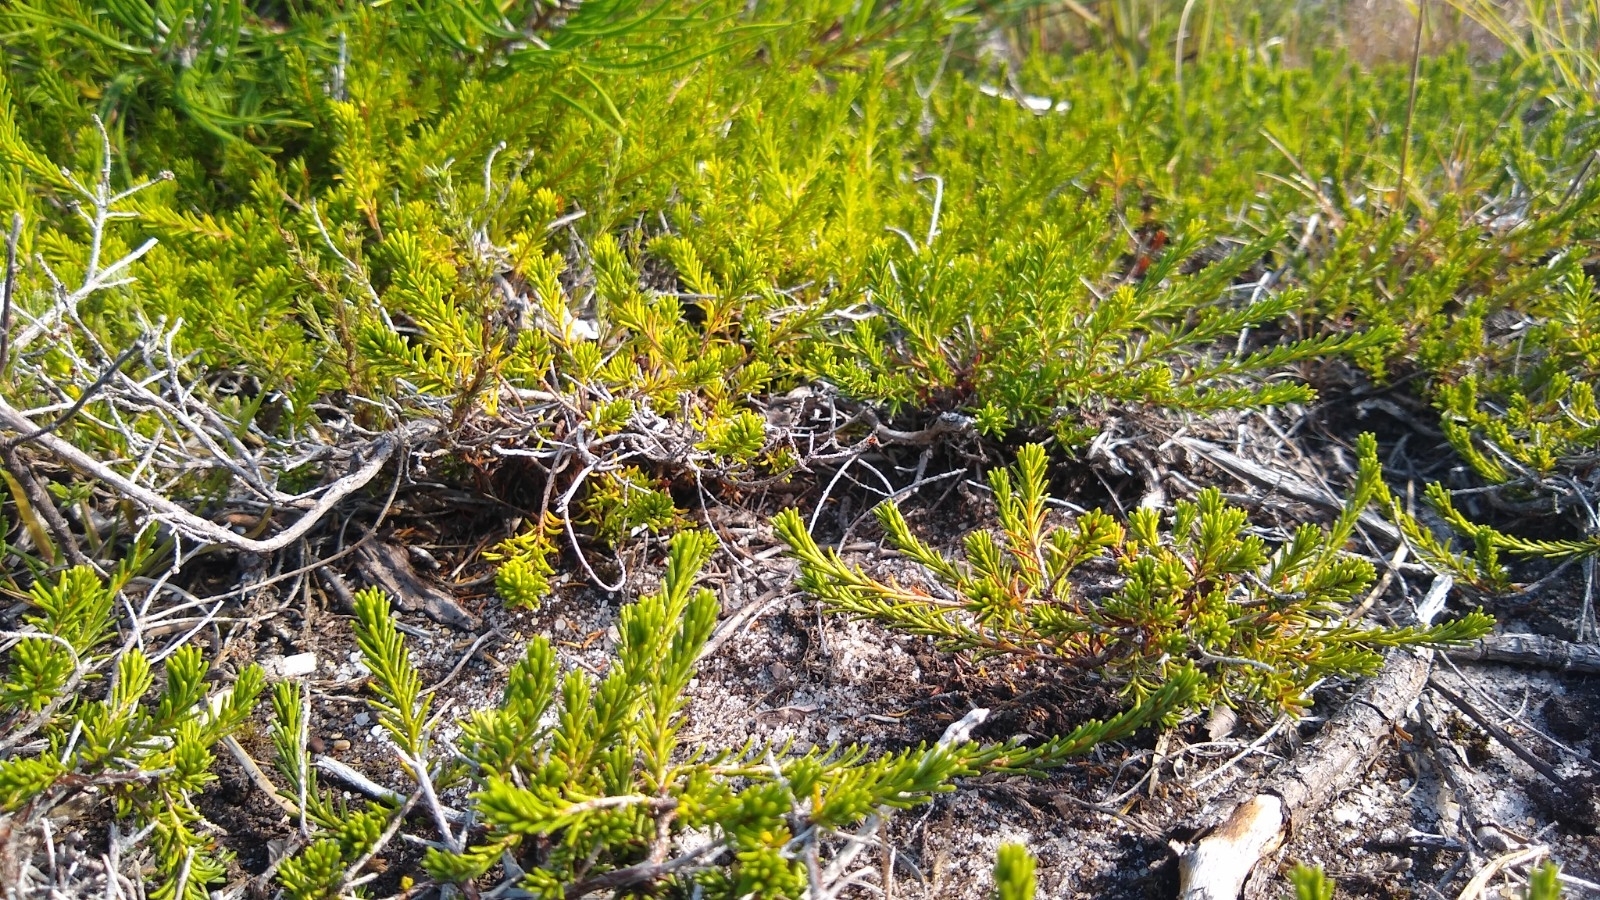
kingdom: Plantae
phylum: Tracheophyta
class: Magnoliopsida
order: Ericales
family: Ericaceae
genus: Corema
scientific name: Corema conradii
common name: Broom-crowberry
